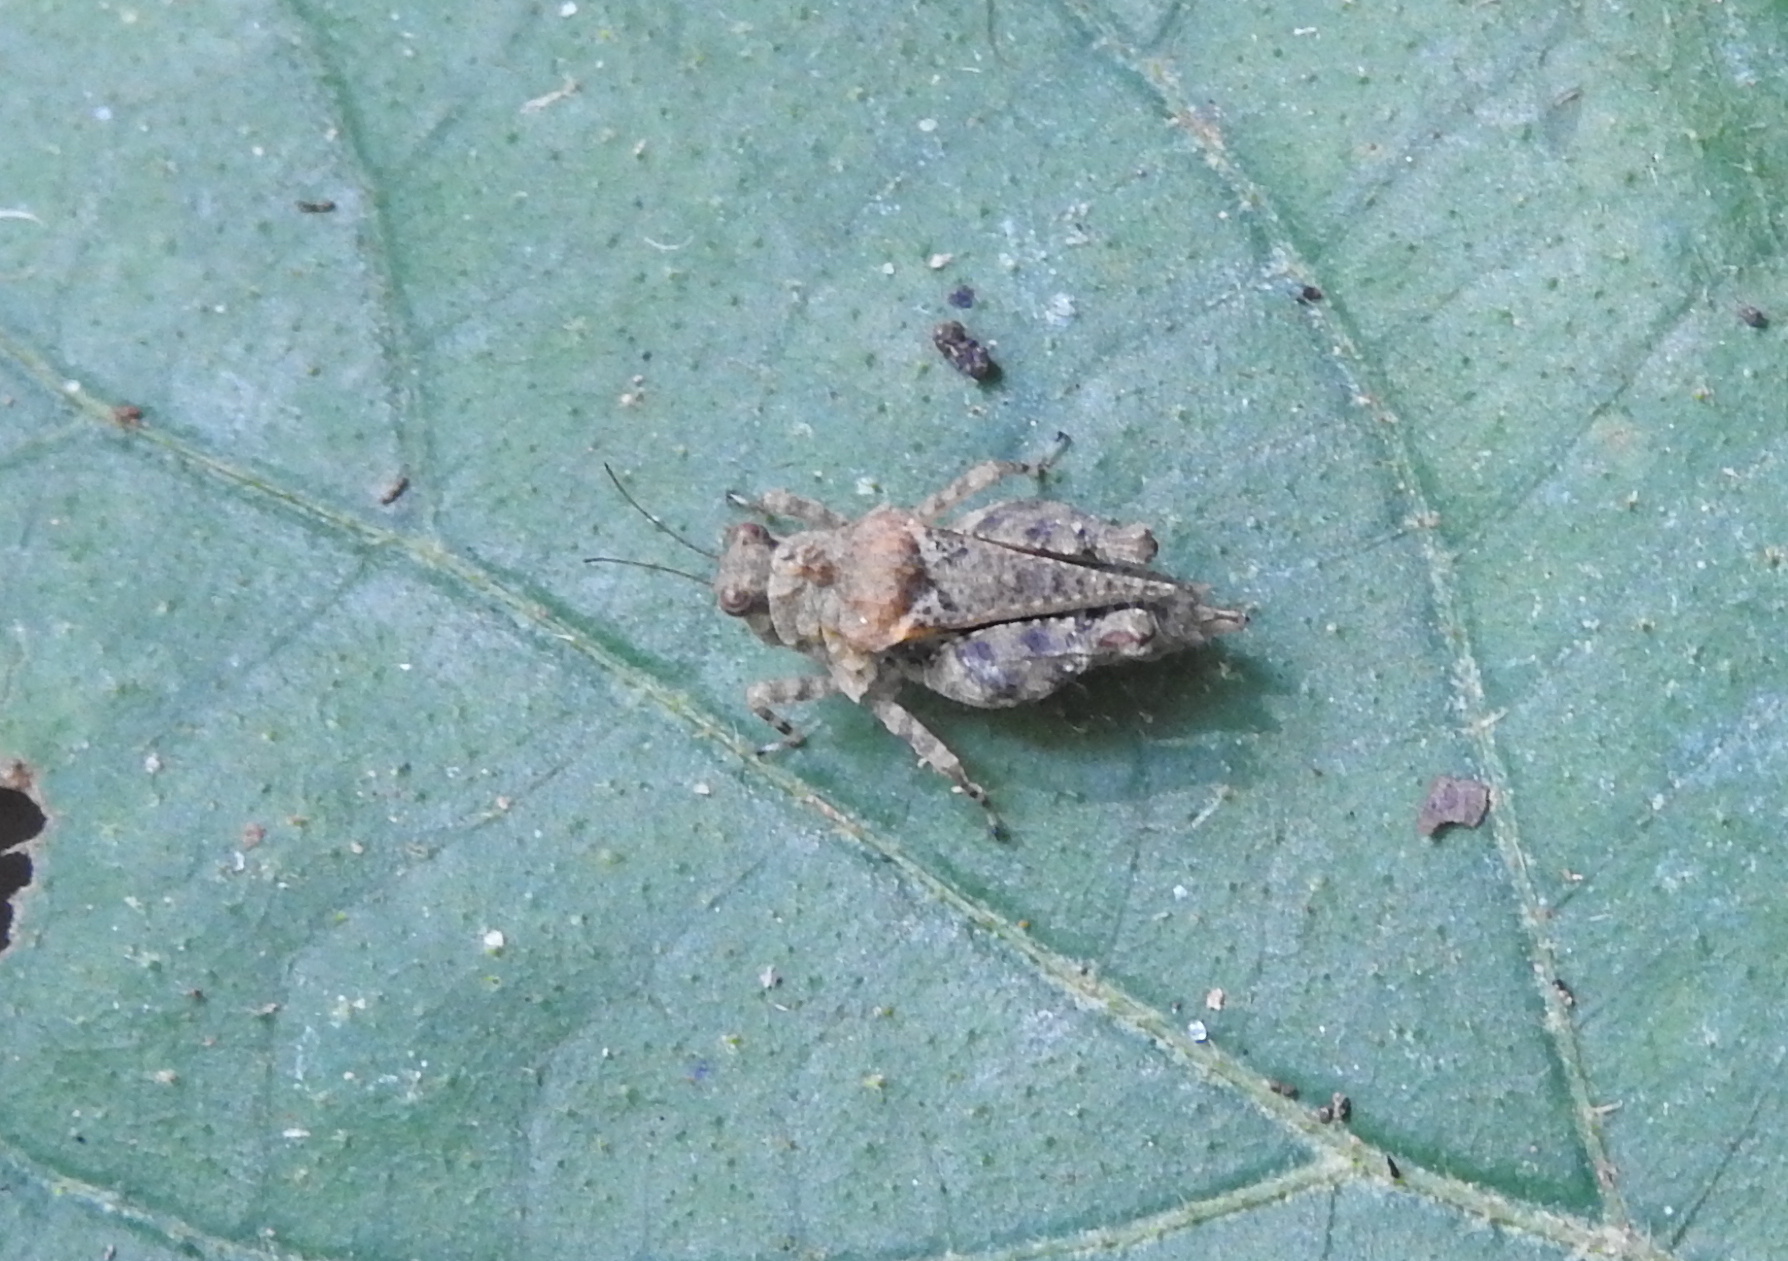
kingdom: Animalia
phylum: Arthropoda
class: Insecta
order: Orthoptera
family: Tetrigidae
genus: Thoradonta
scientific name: Thoradonta dentata
